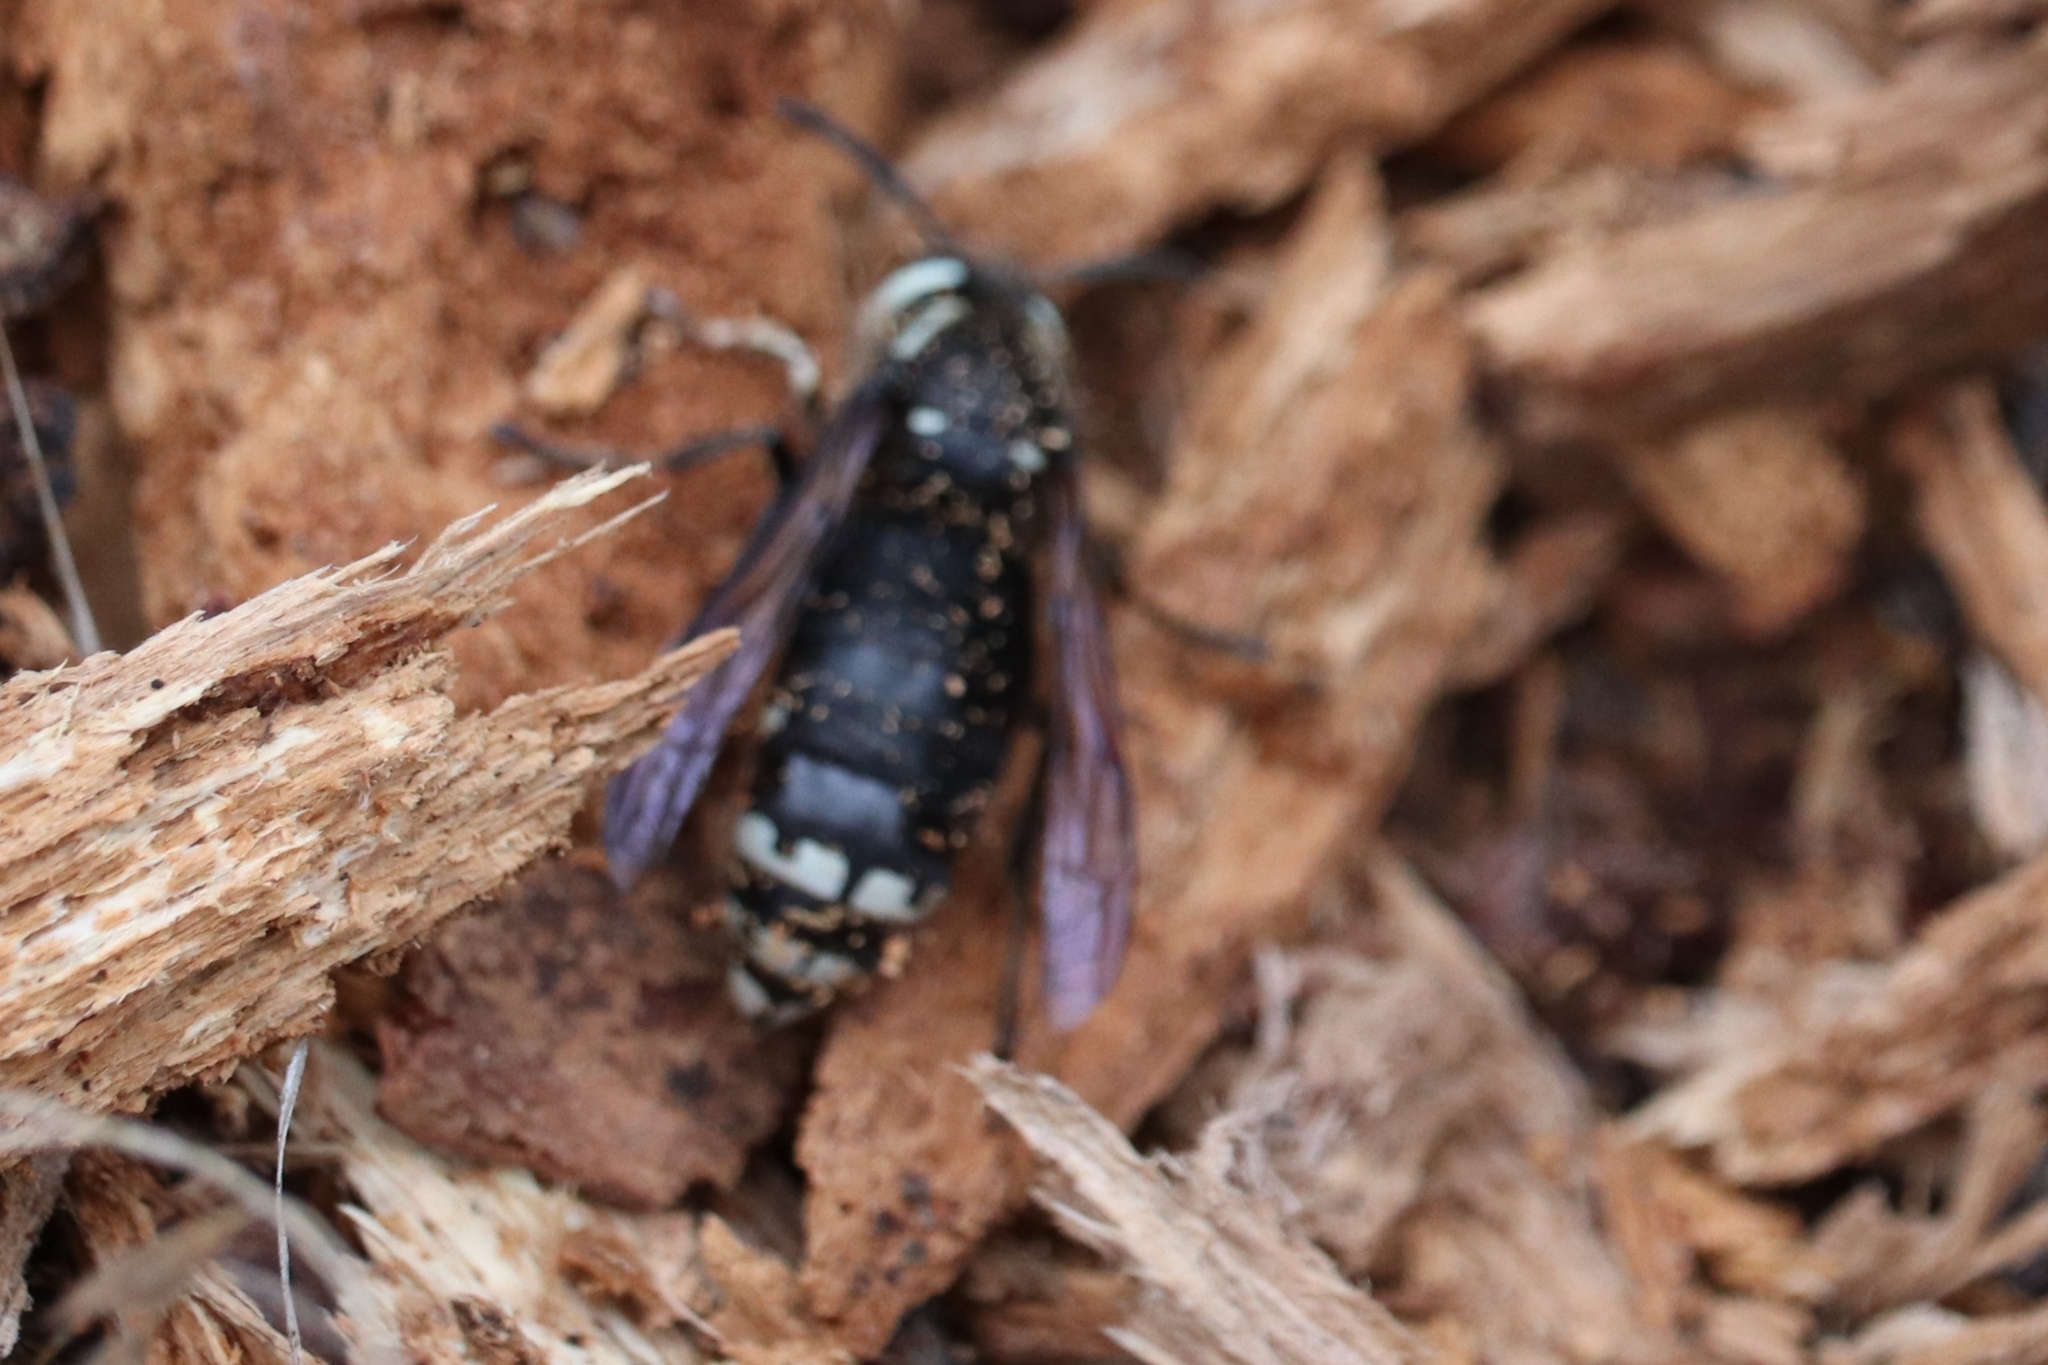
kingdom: Animalia
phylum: Arthropoda
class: Insecta
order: Hymenoptera
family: Vespidae
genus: Dolichovespula
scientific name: Dolichovespula maculata
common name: Bald-faced hornet
